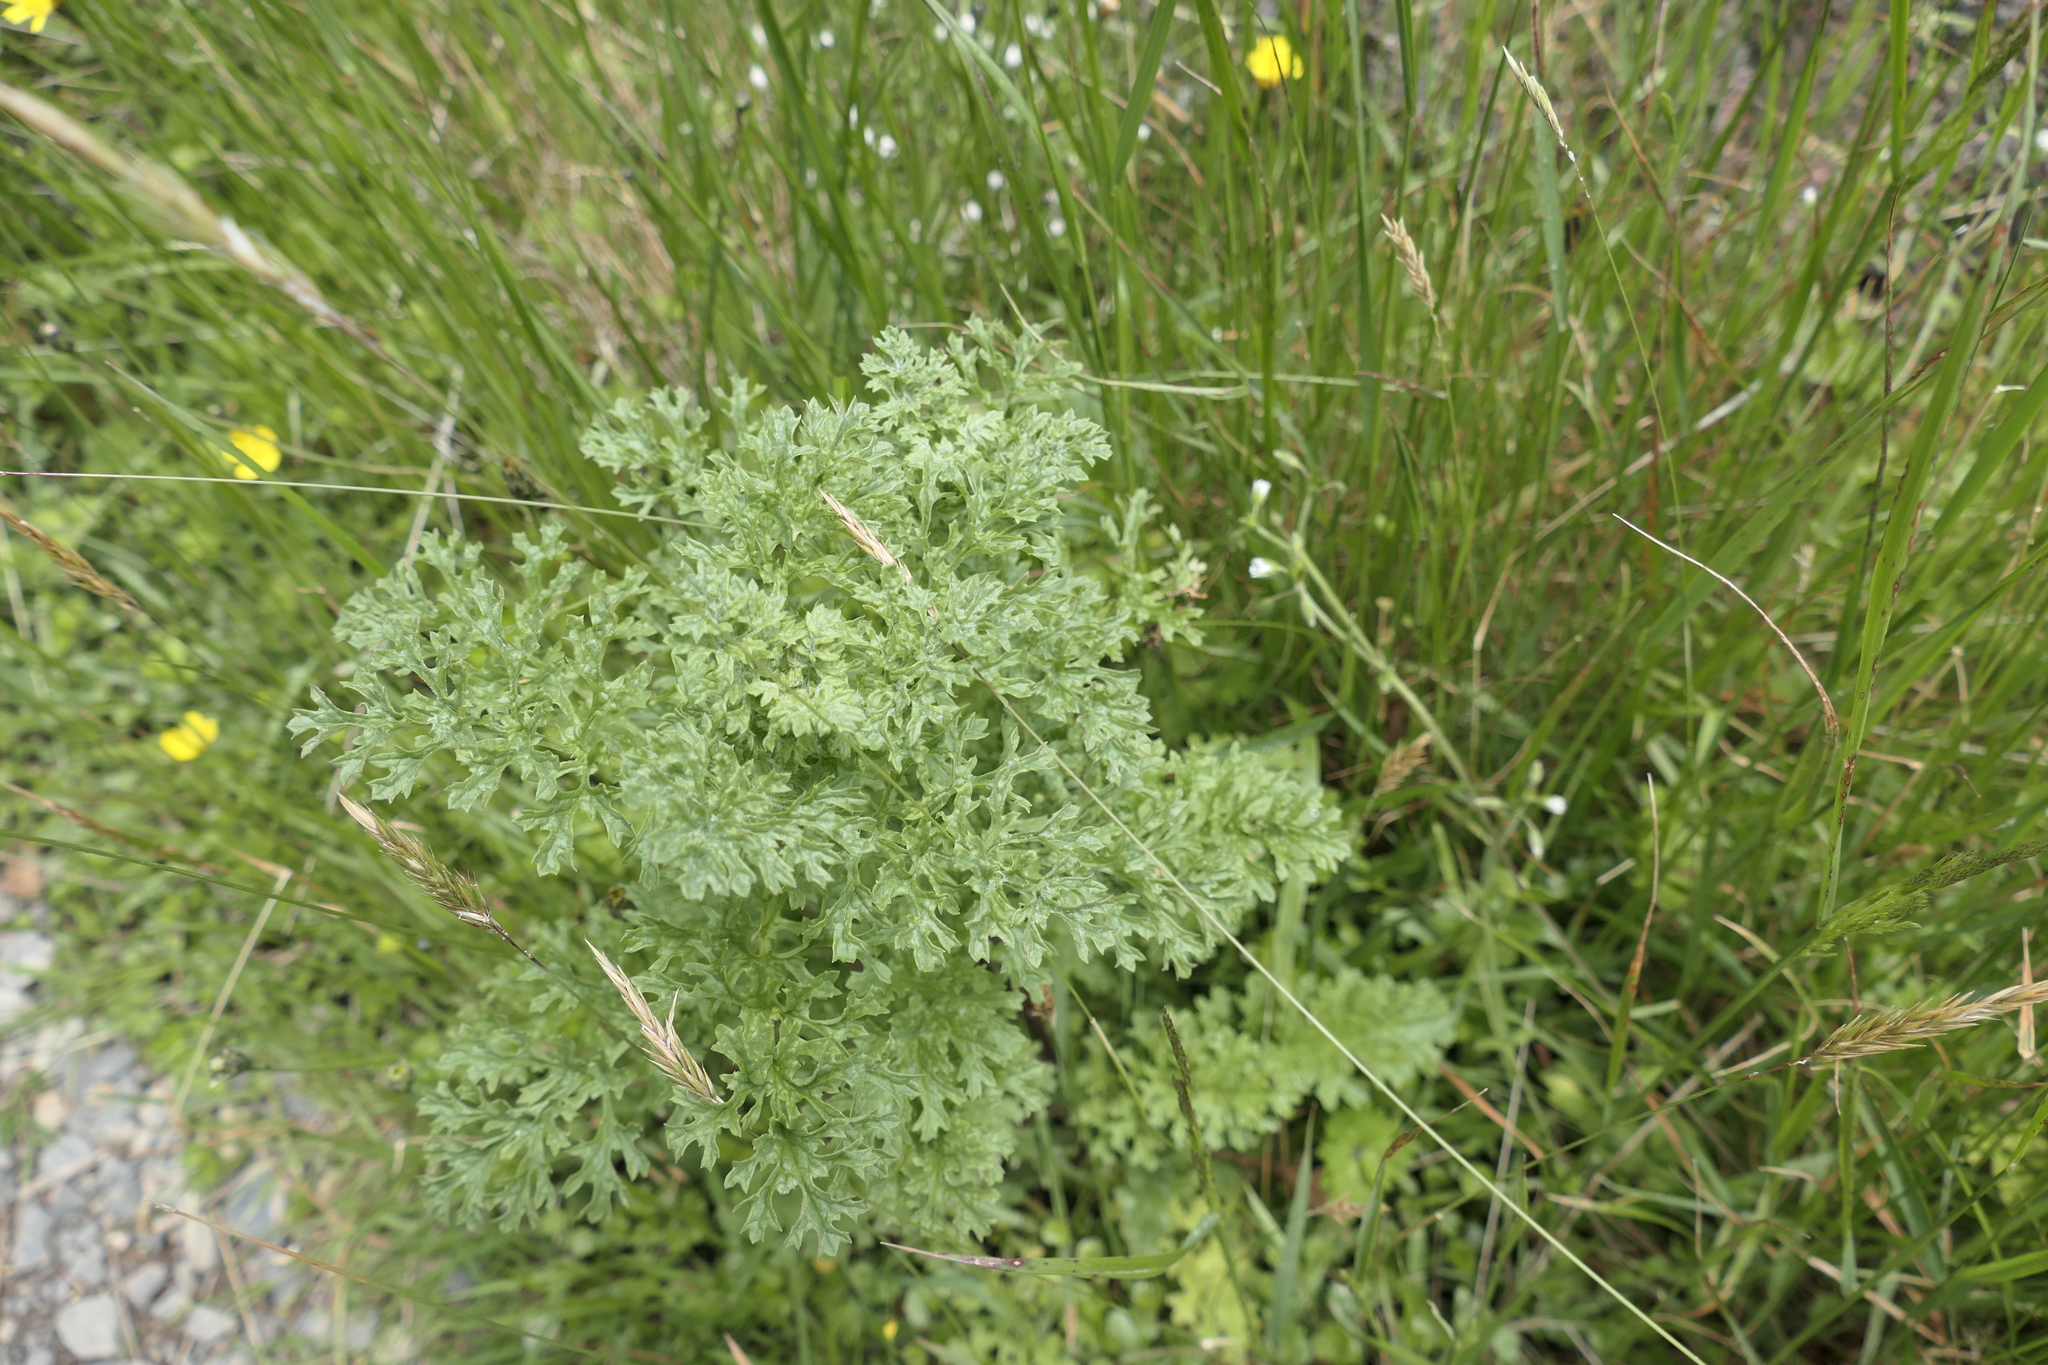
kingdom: Plantae
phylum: Tracheophyta
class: Magnoliopsida
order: Asterales
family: Asteraceae
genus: Jacobaea
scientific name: Jacobaea vulgaris
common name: Stinking willie
